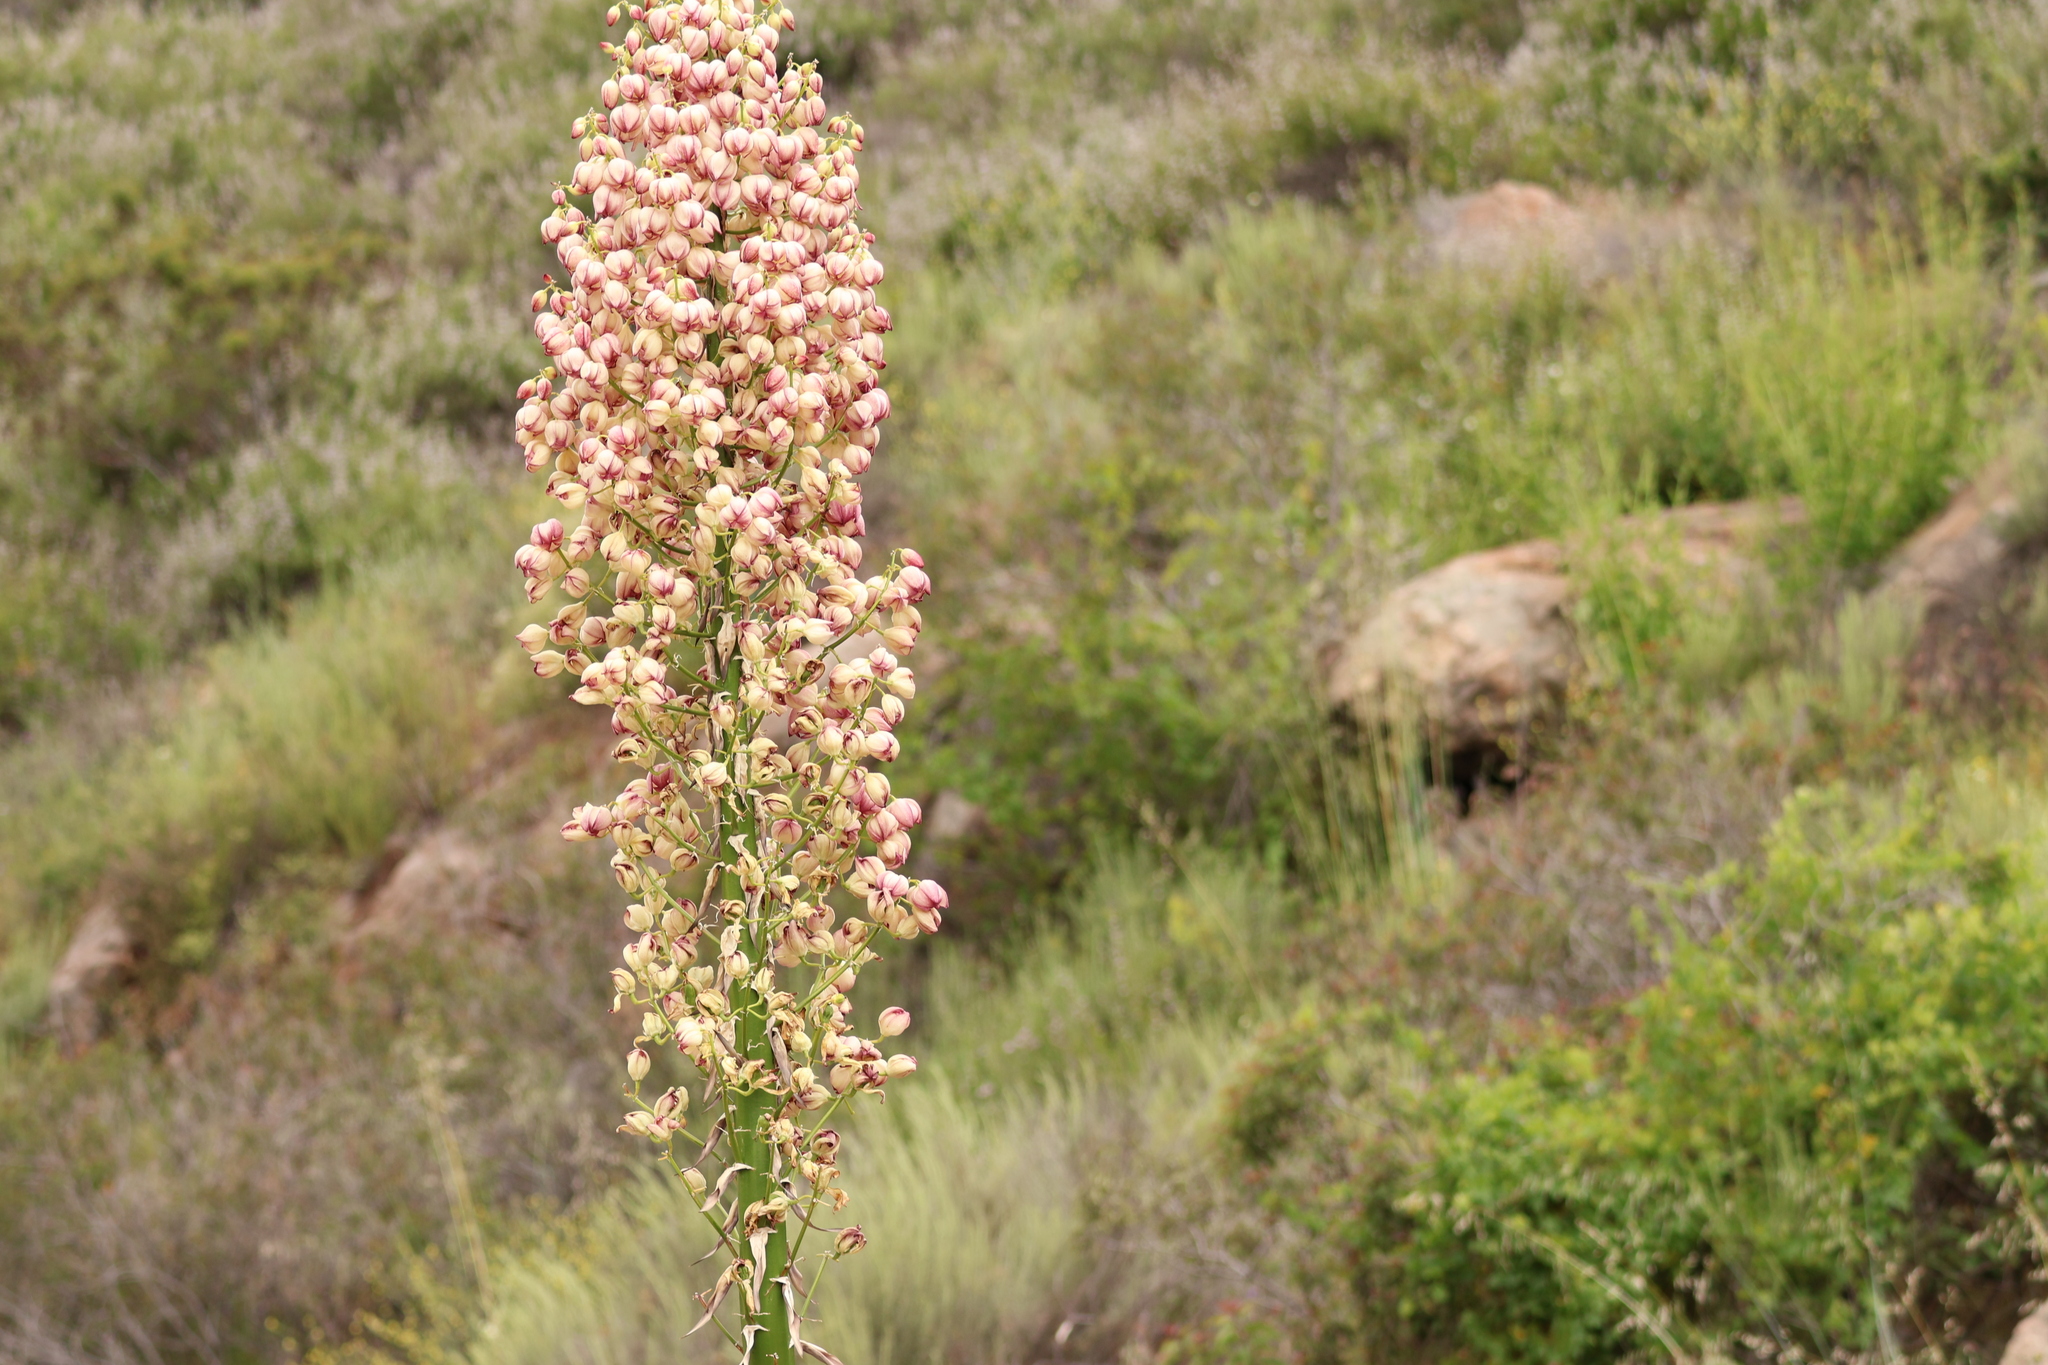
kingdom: Plantae
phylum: Tracheophyta
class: Liliopsida
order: Asparagales
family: Asparagaceae
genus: Hesperoyucca
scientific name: Hesperoyucca whipplei
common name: Our lord's-candle
